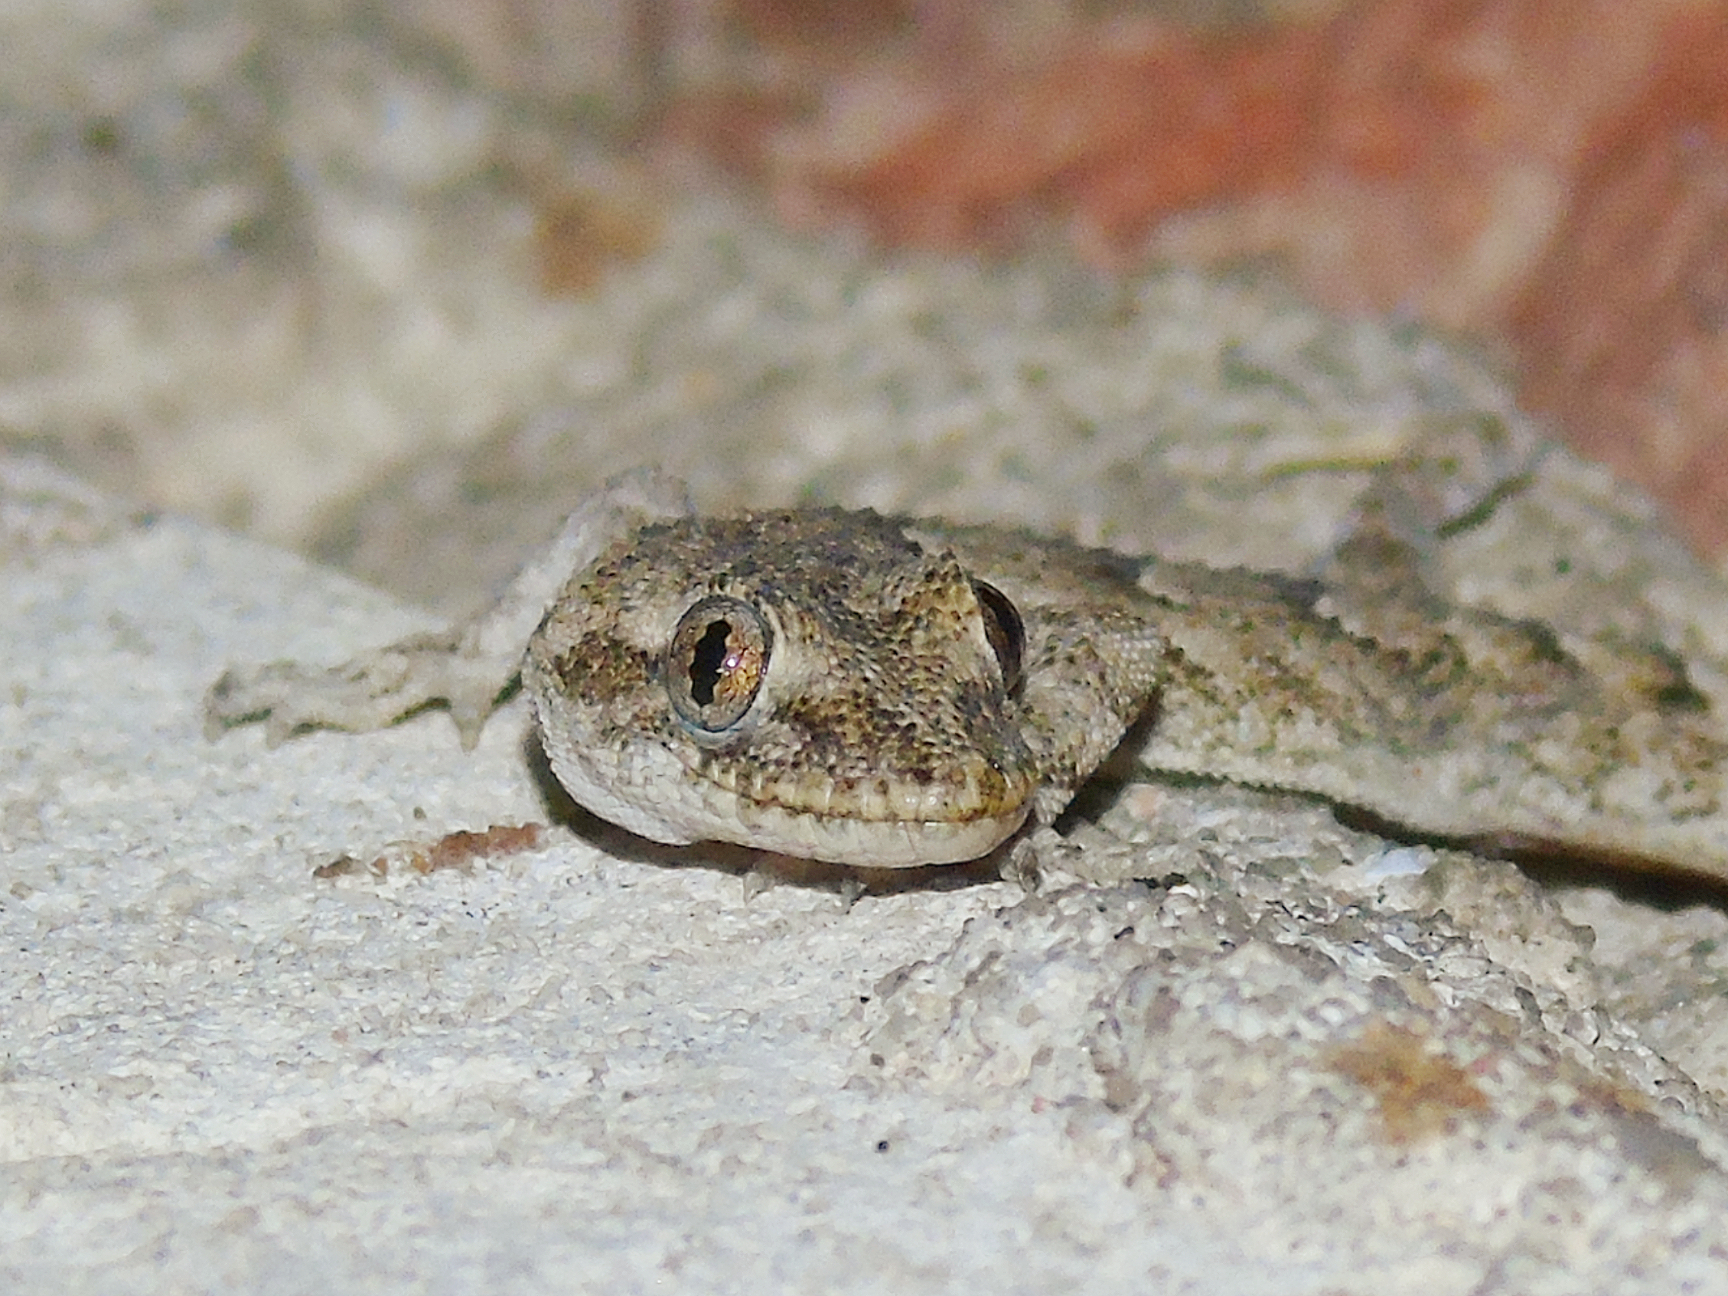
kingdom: Animalia
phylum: Chordata
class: Squamata
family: Gekkonidae
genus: Mediodactylus
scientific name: Mediodactylus danilewskii
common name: Bulgarian bent-toed gecko
